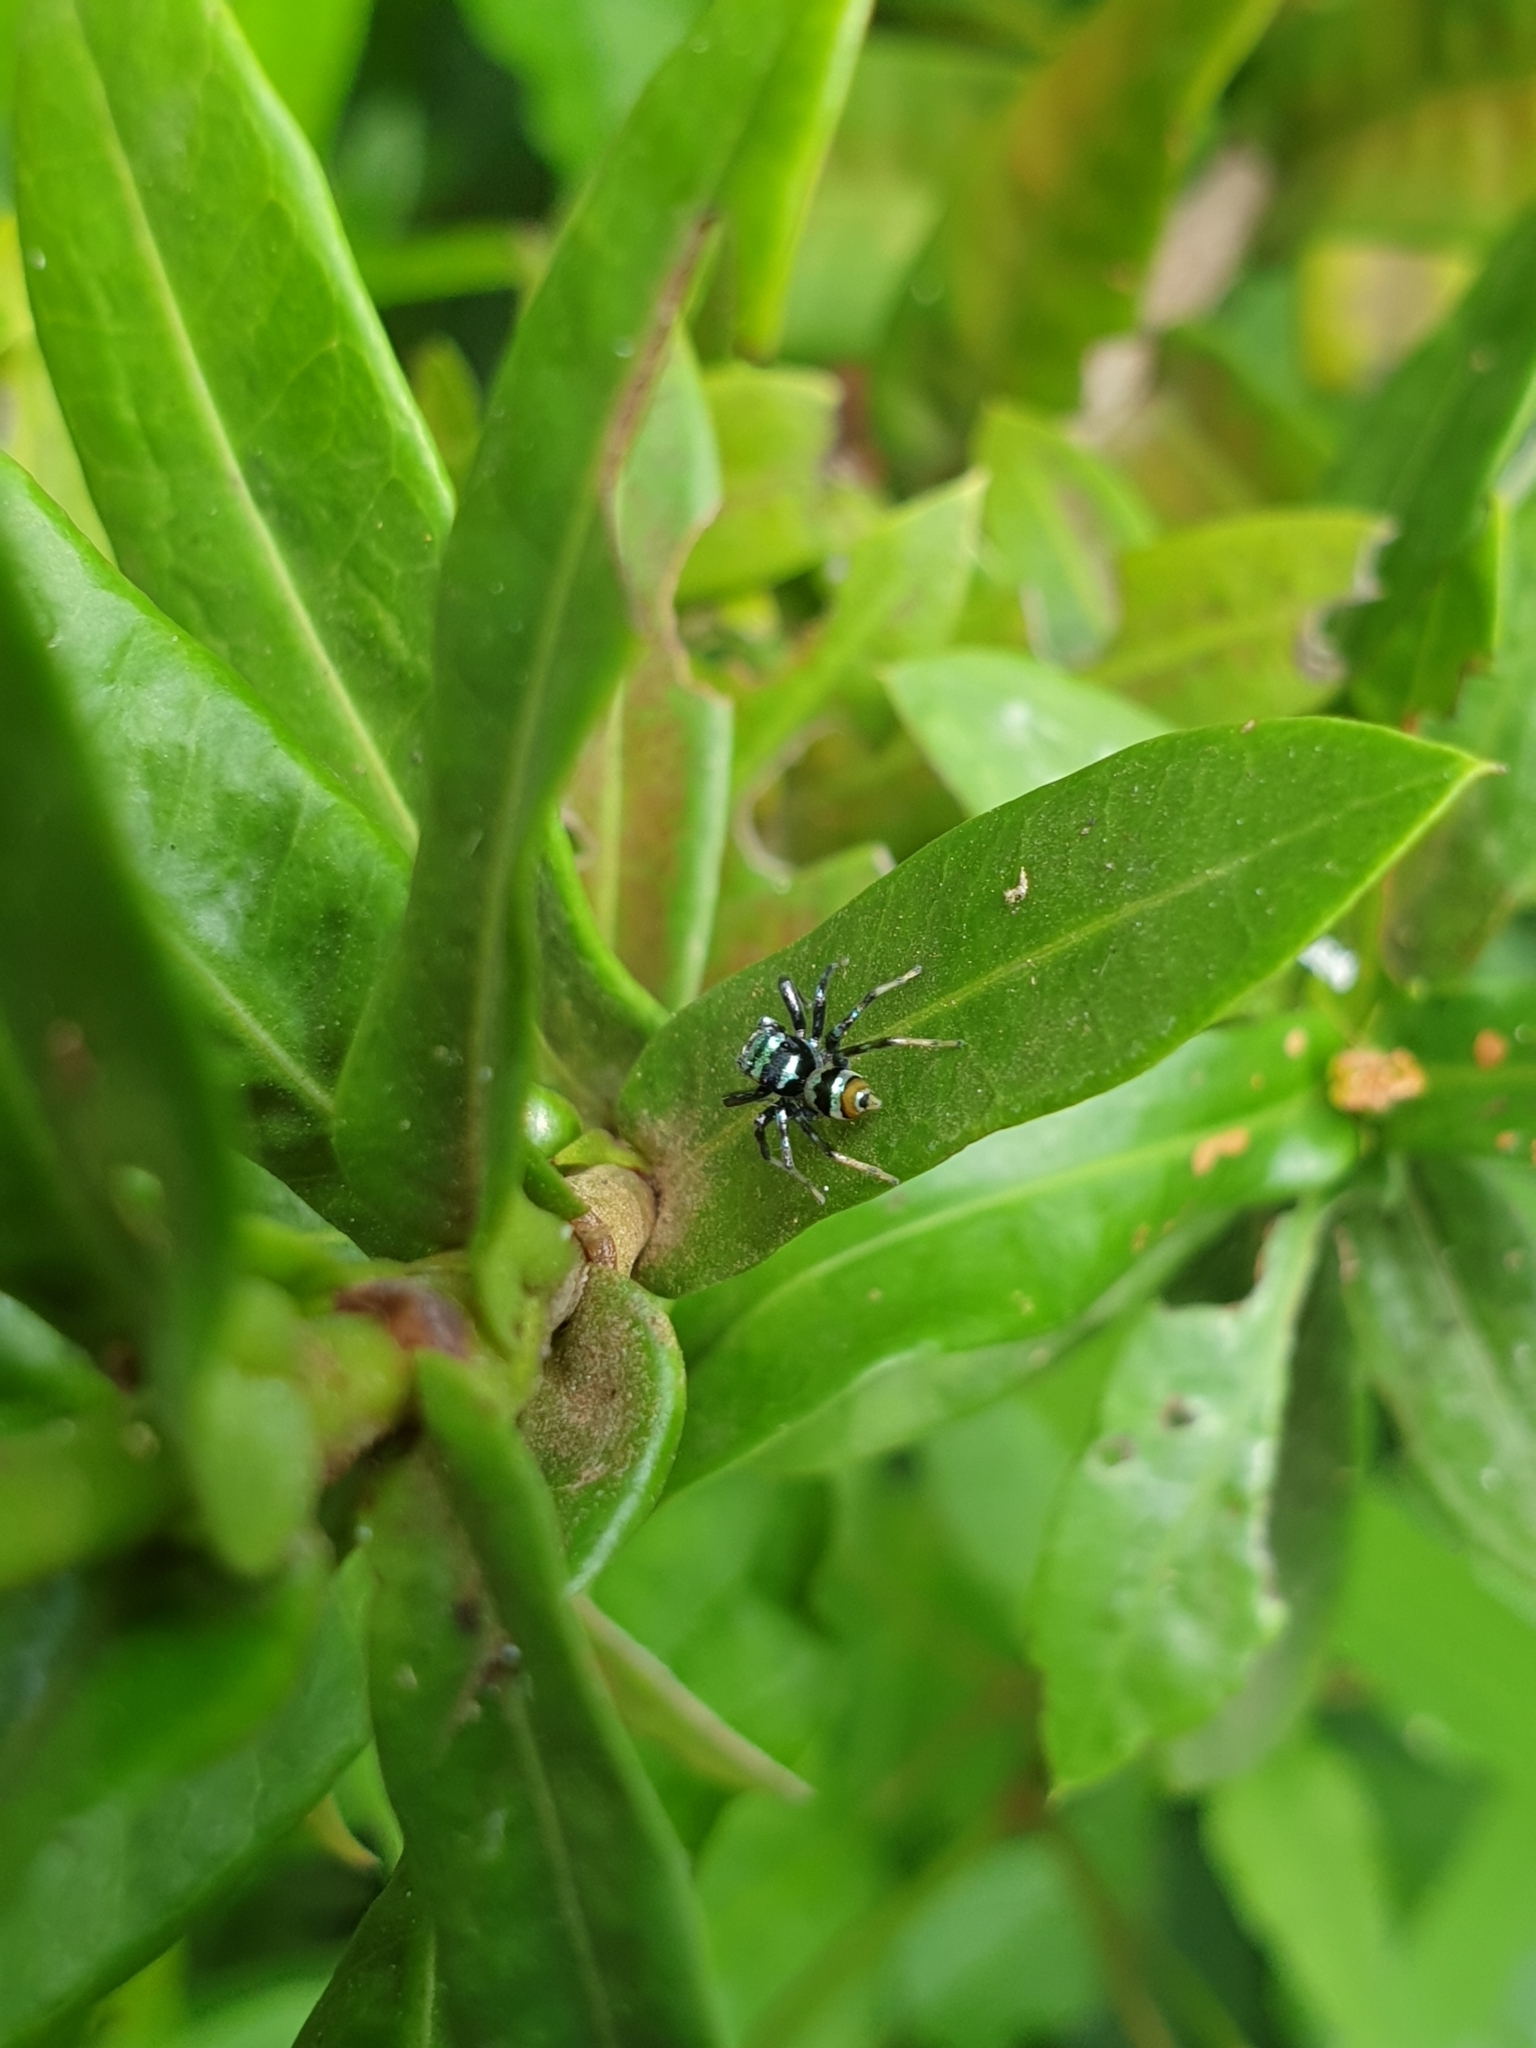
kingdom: Animalia
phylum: Arthropoda
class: Arachnida
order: Araneae
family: Salticidae
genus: Phintella
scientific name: Phintella vittata
